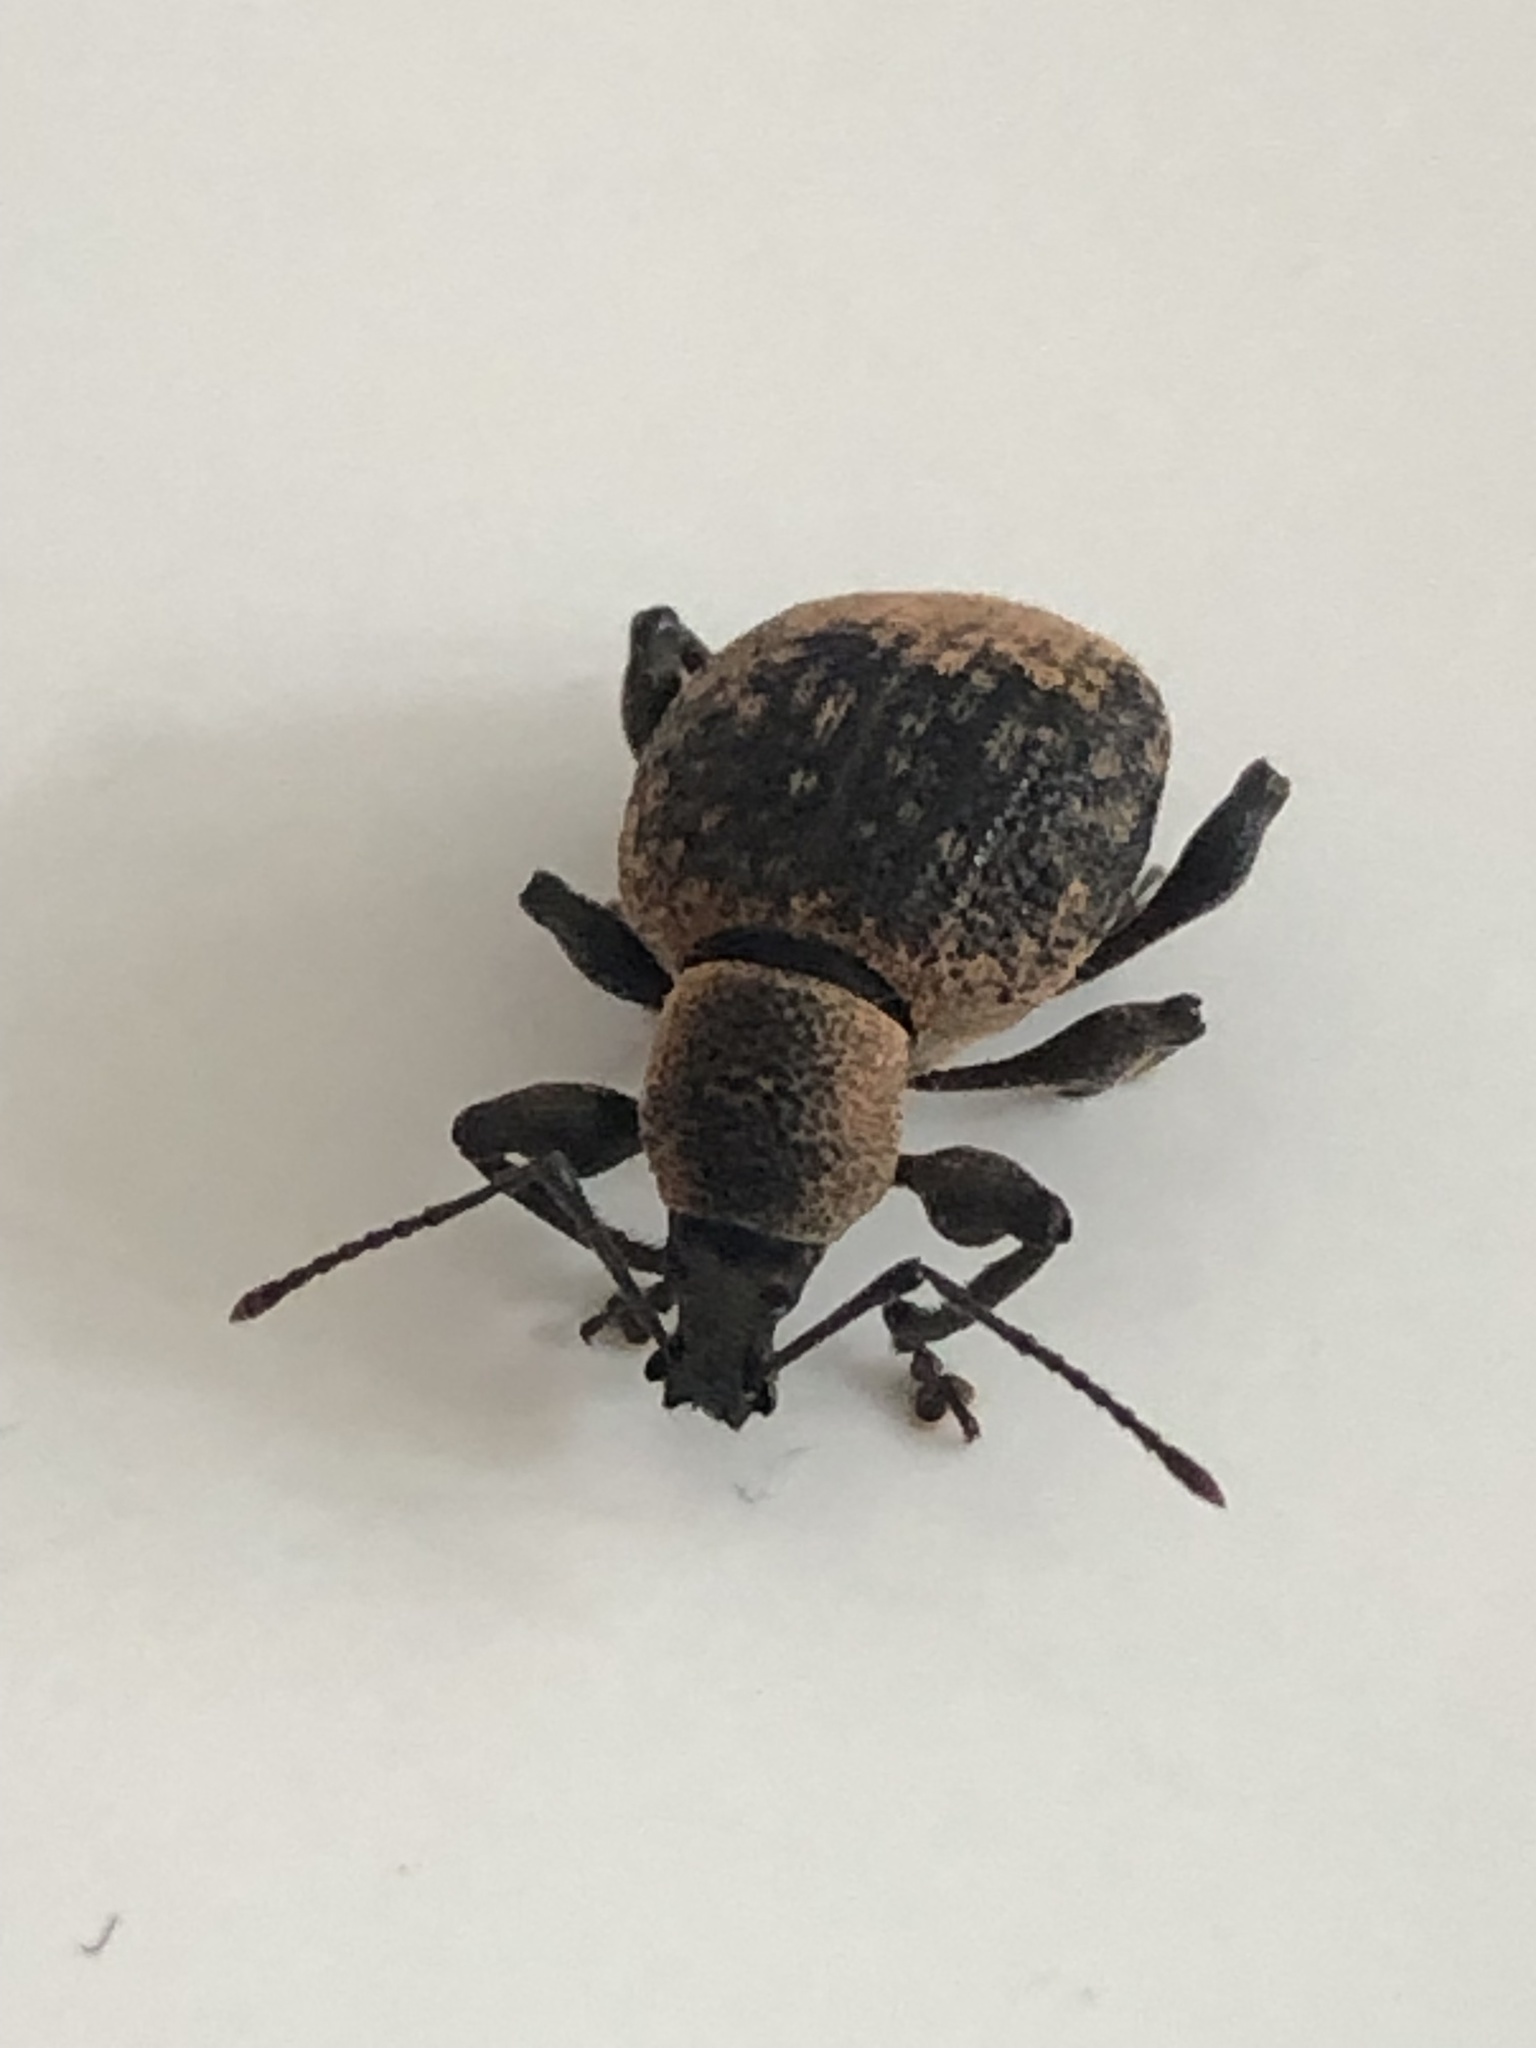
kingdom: Animalia
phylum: Arthropoda
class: Insecta
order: Coleoptera
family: Curculionidae
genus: Otiorhynchus
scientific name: Otiorhynchus armadillo
